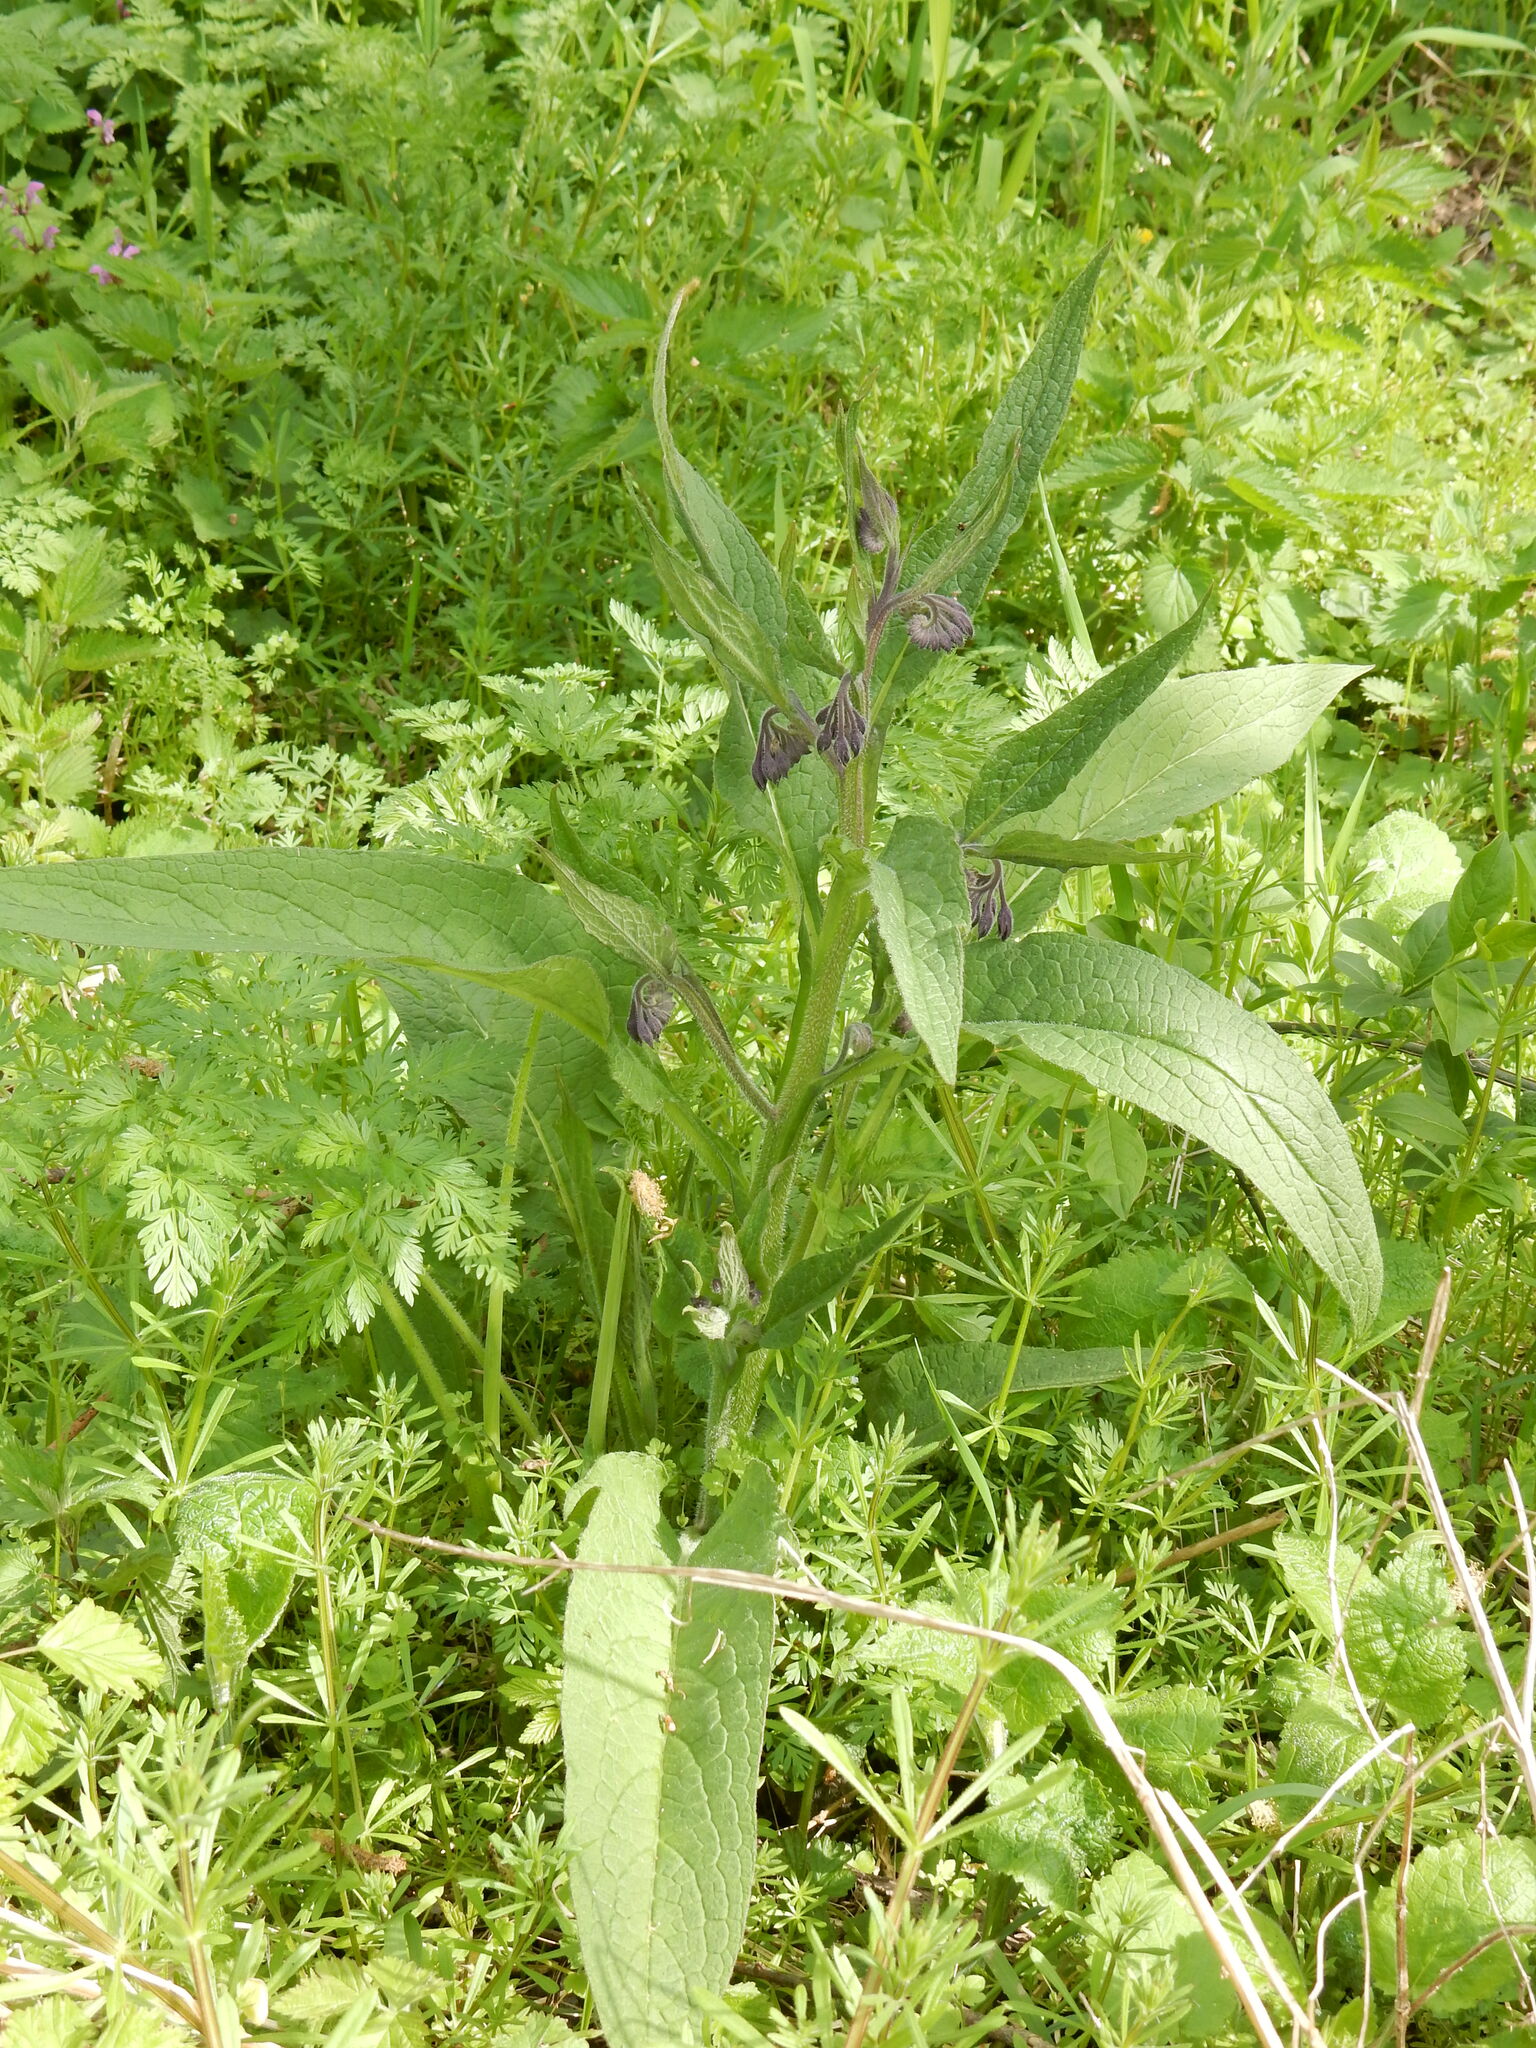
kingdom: Plantae
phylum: Tracheophyta
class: Magnoliopsida
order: Boraginales
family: Boraginaceae
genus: Symphytum
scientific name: Symphytum officinale
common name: Common comfrey
